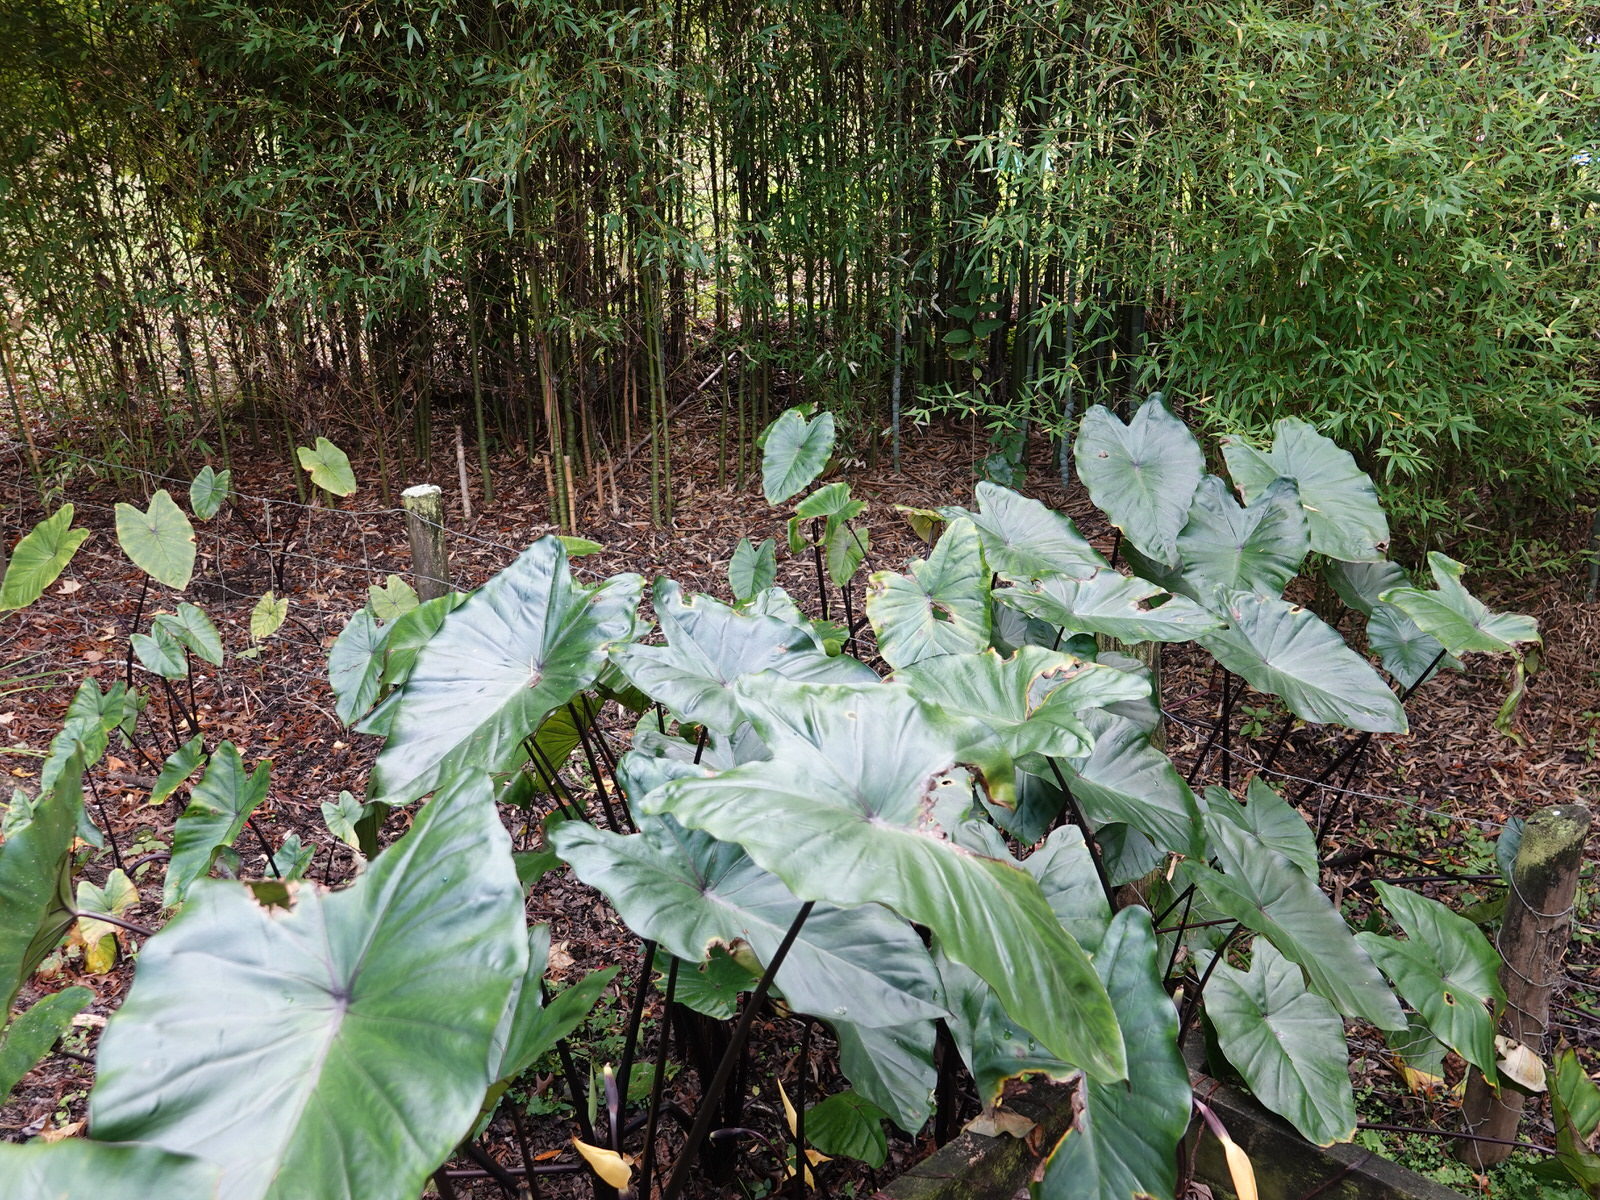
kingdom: Animalia
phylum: Arthropoda
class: Insecta
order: Coleoptera
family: Coccinellidae
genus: Halmus
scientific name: Halmus chalybeus
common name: Steel blue ladybird beetle
